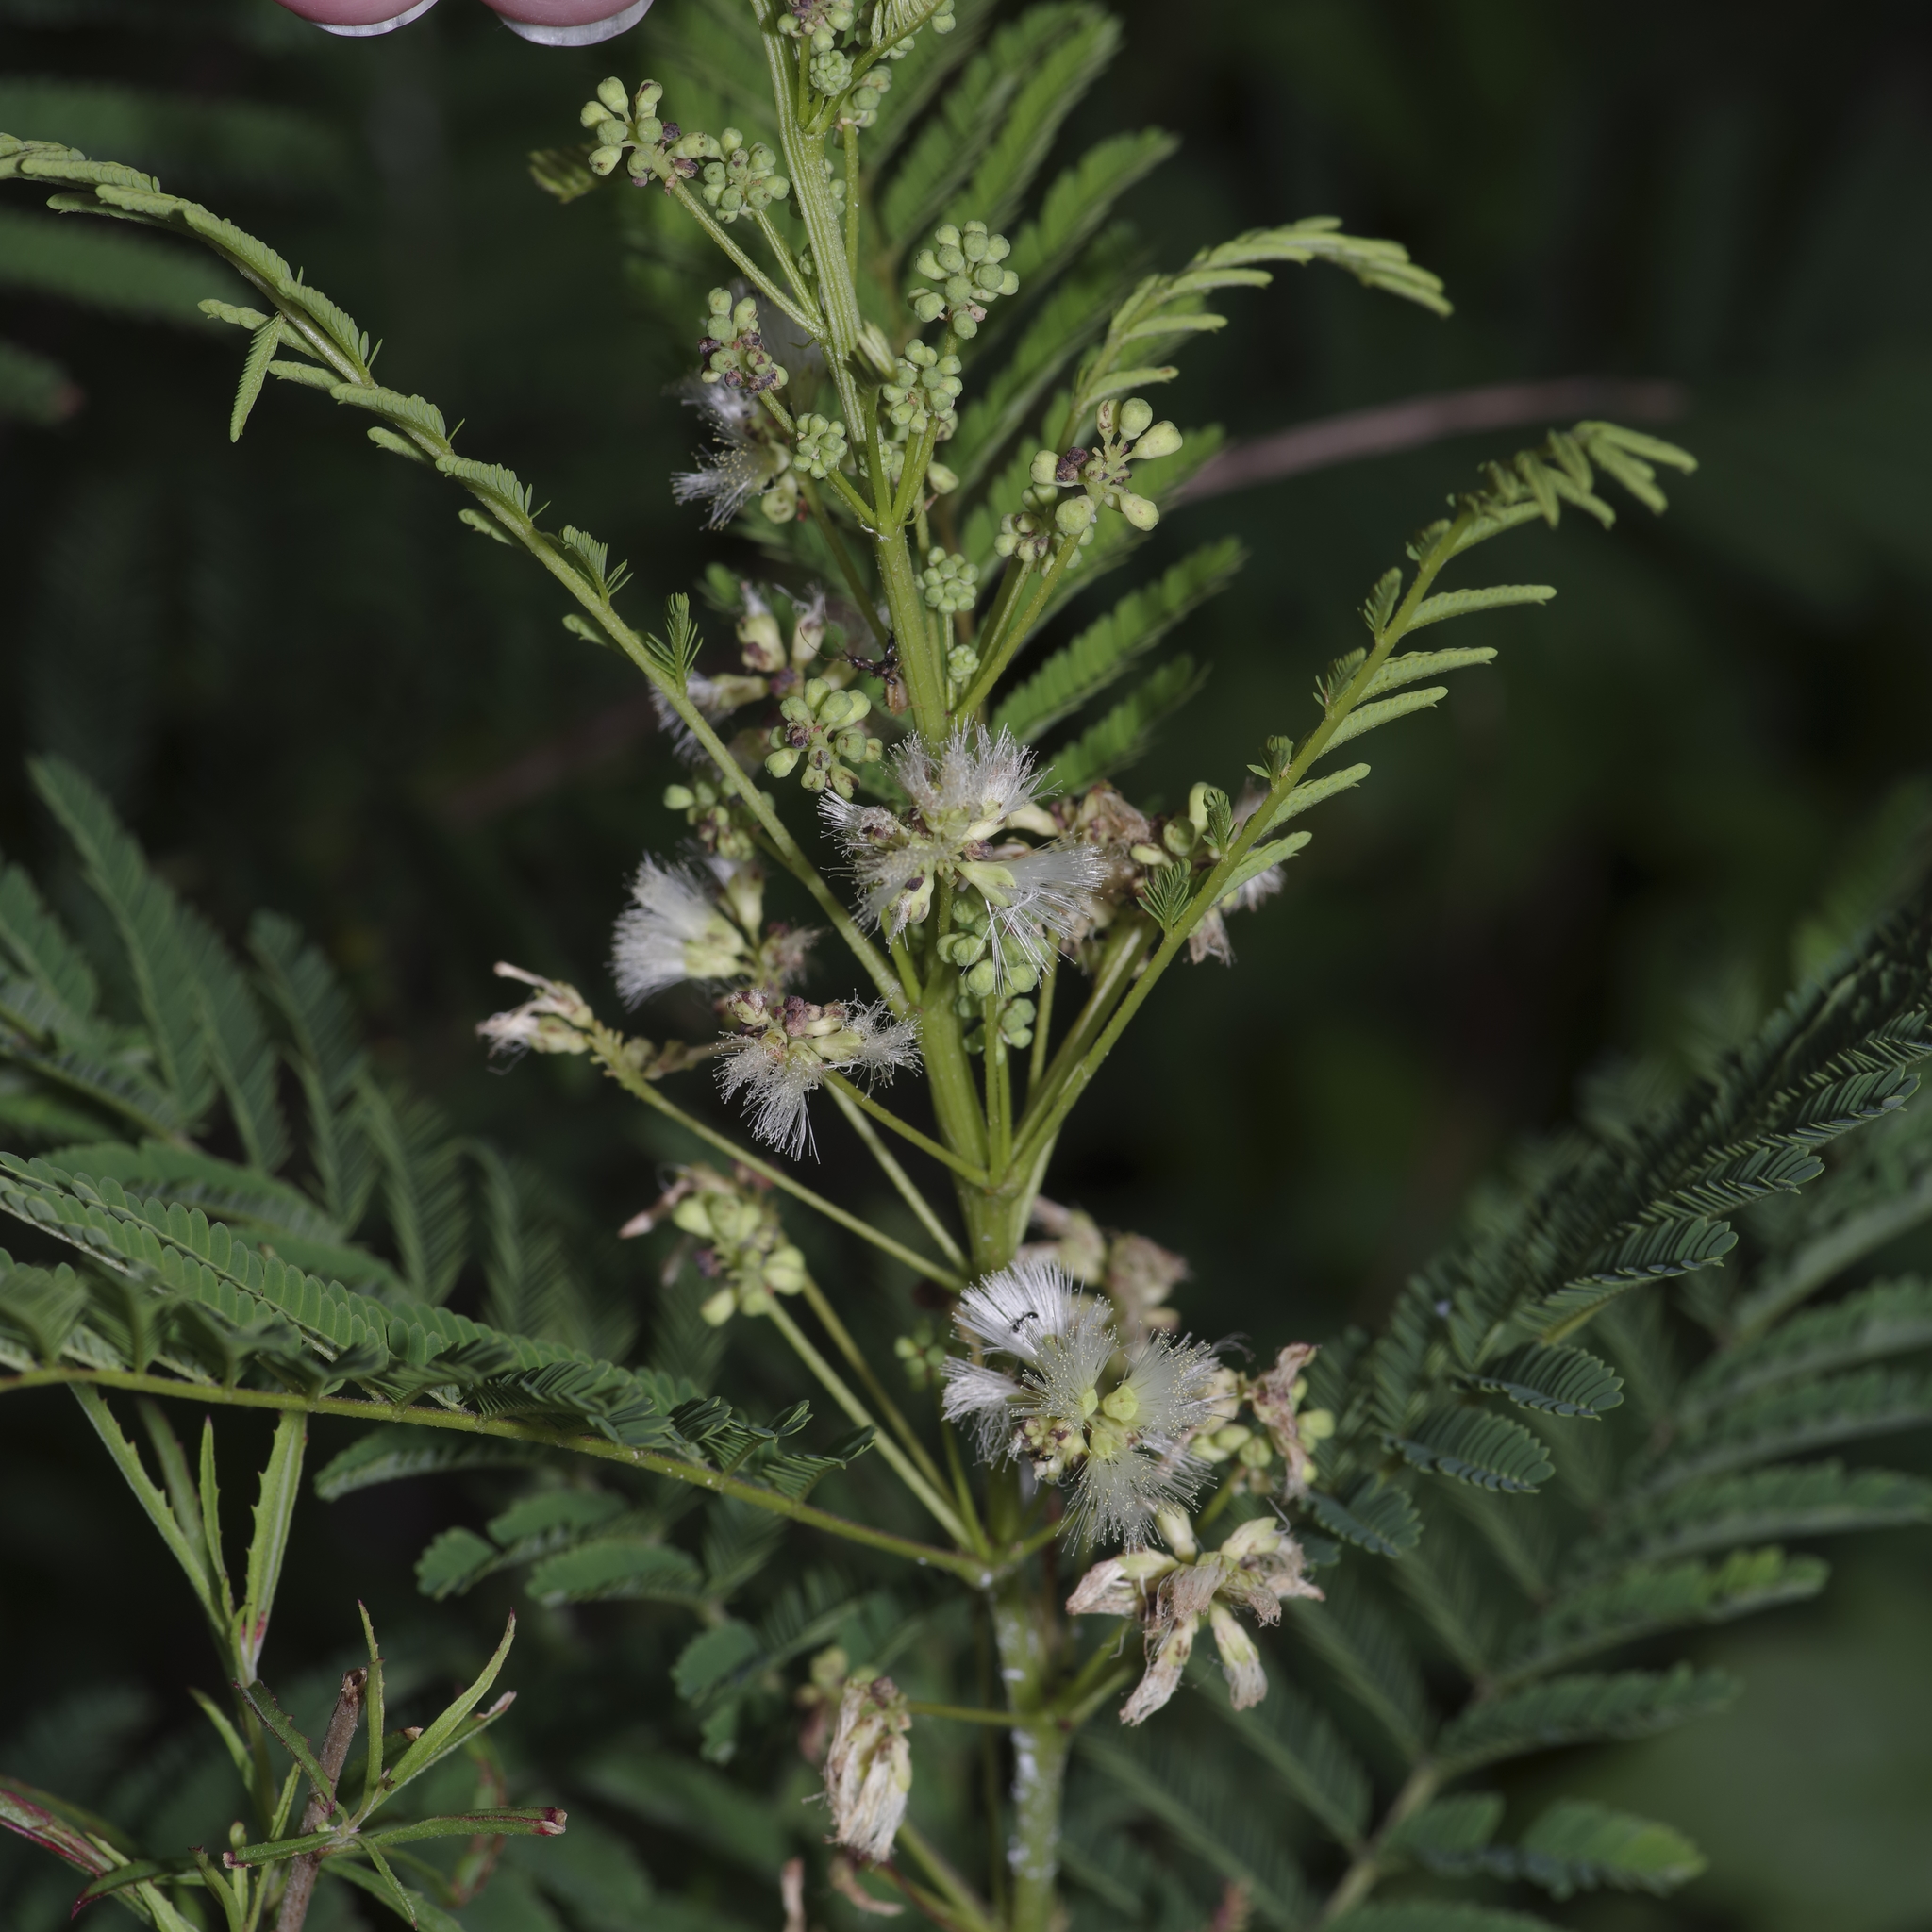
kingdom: Plantae
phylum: Tracheophyta
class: Magnoliopsida
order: Fabales
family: Fabaceae
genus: Acaciella
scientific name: Acaciella angustissima
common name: Prairie acacia
